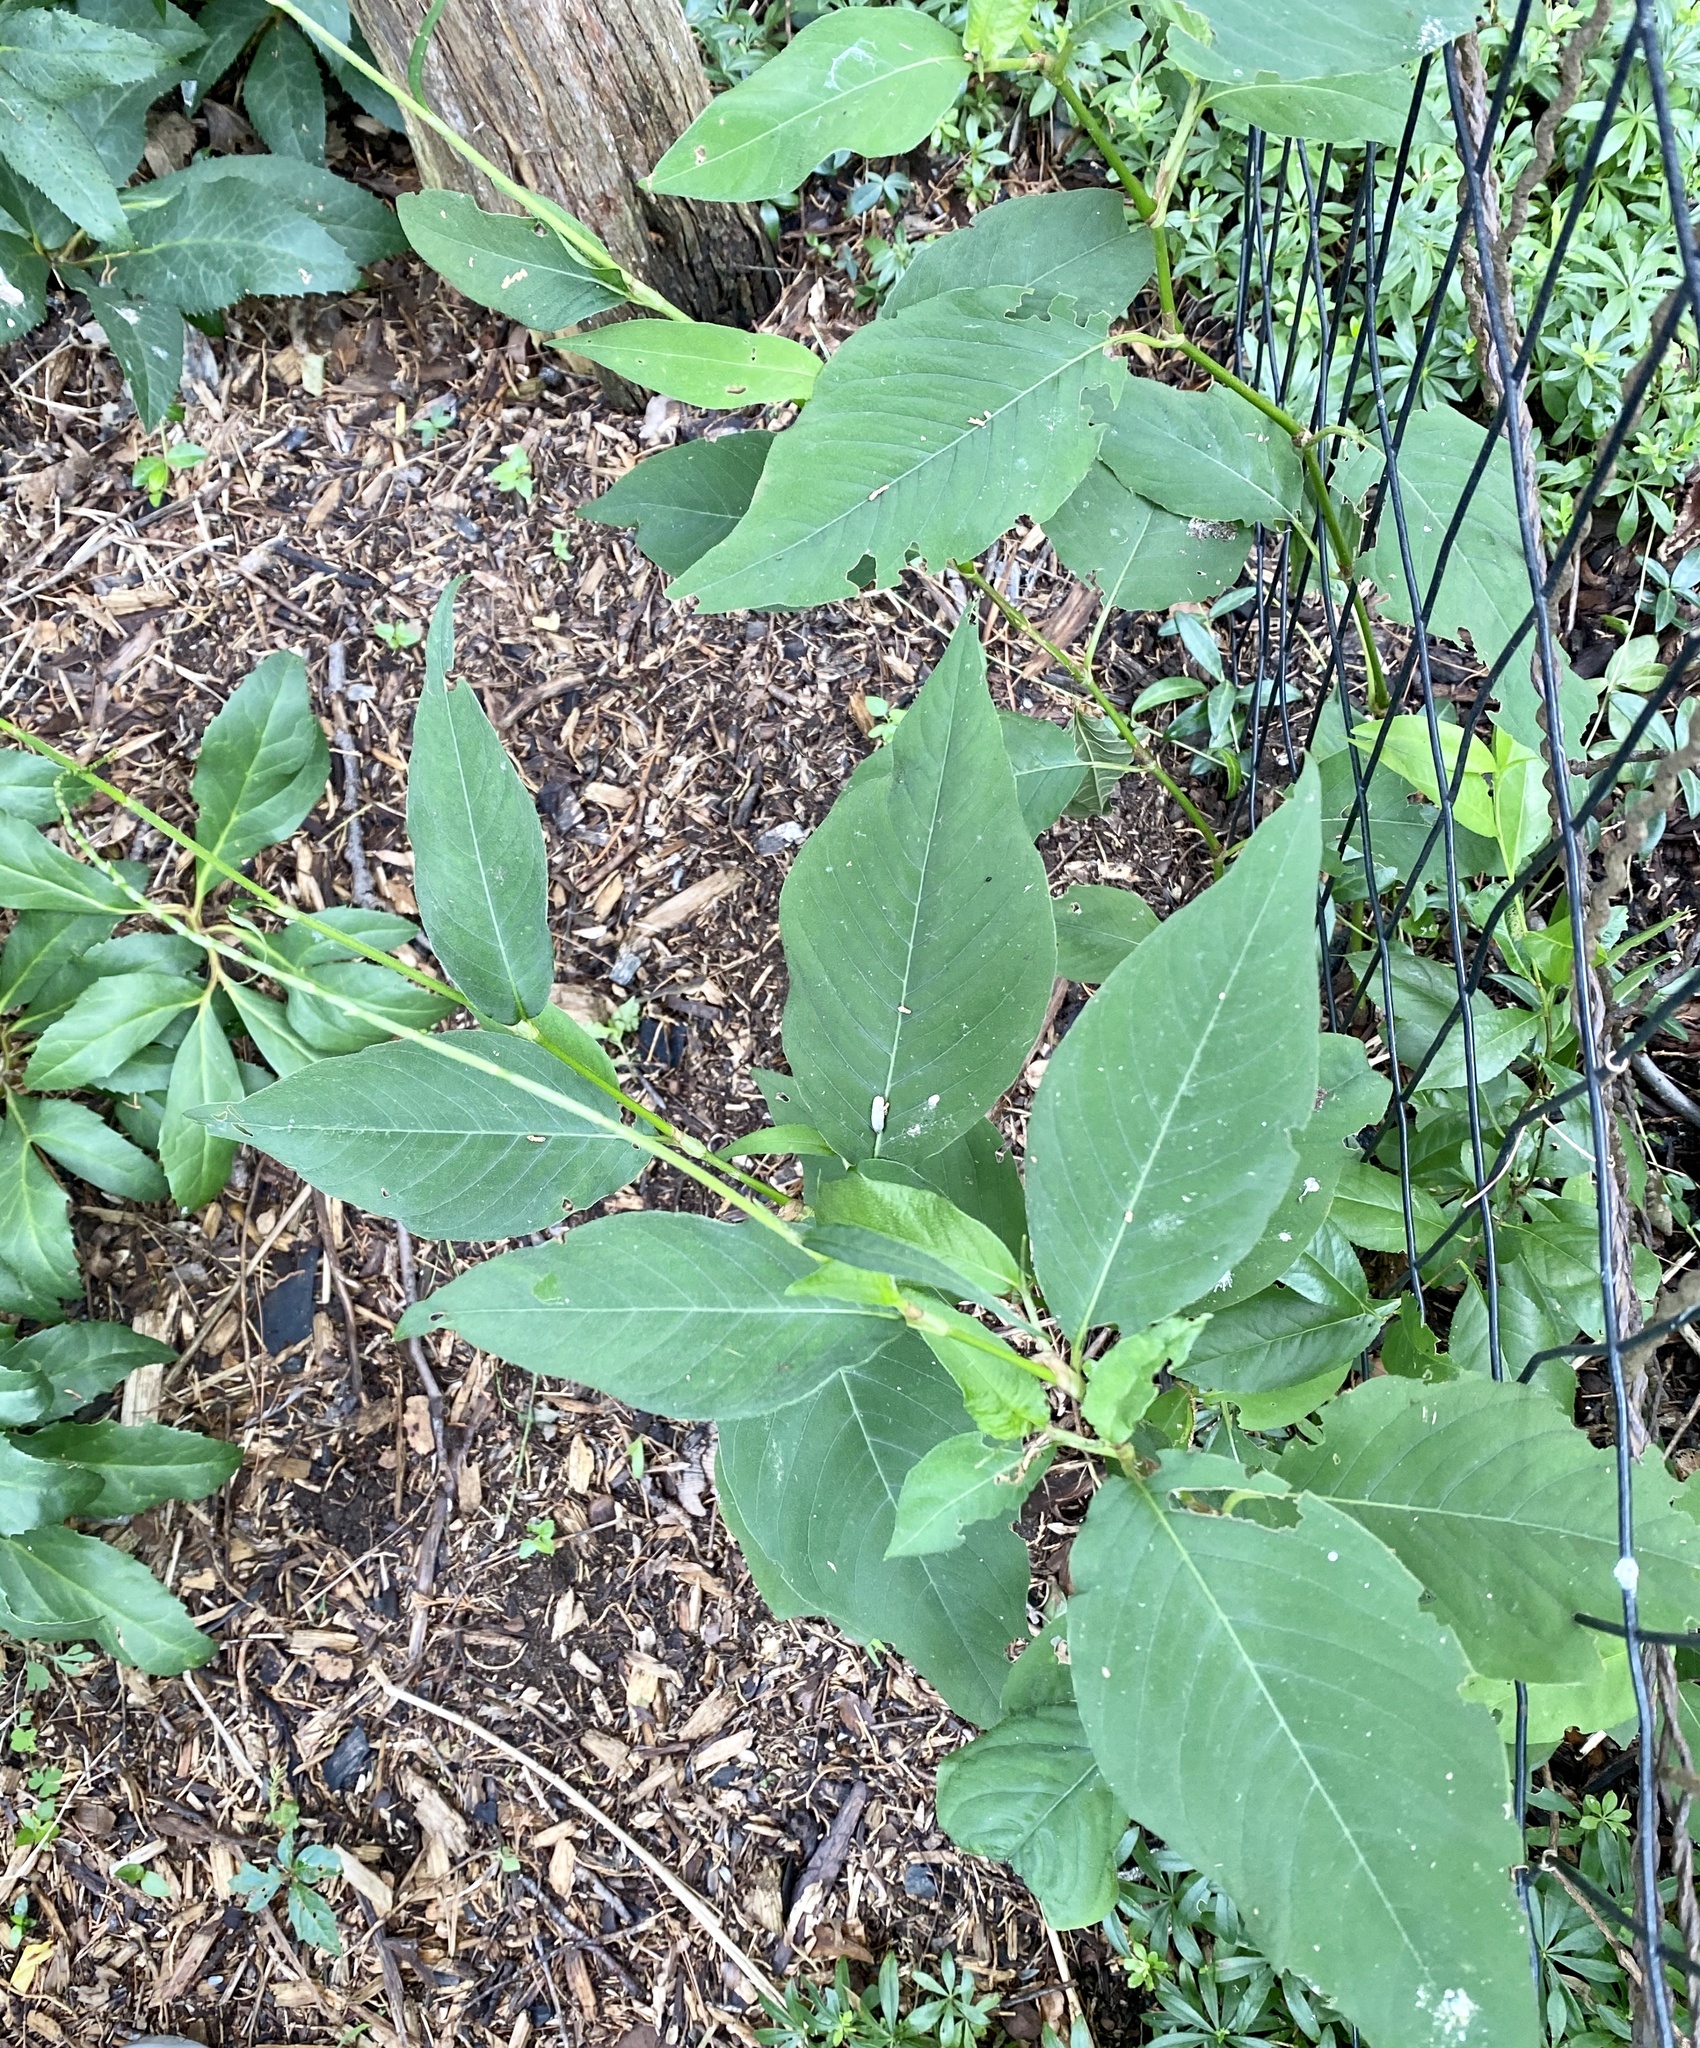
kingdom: Plantae
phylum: Tracheophyta
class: Magnoliopsida
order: Caryophyllales
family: Polygonaceae
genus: Persicaria
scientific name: Persicaria virginiana
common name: Jumpseed
